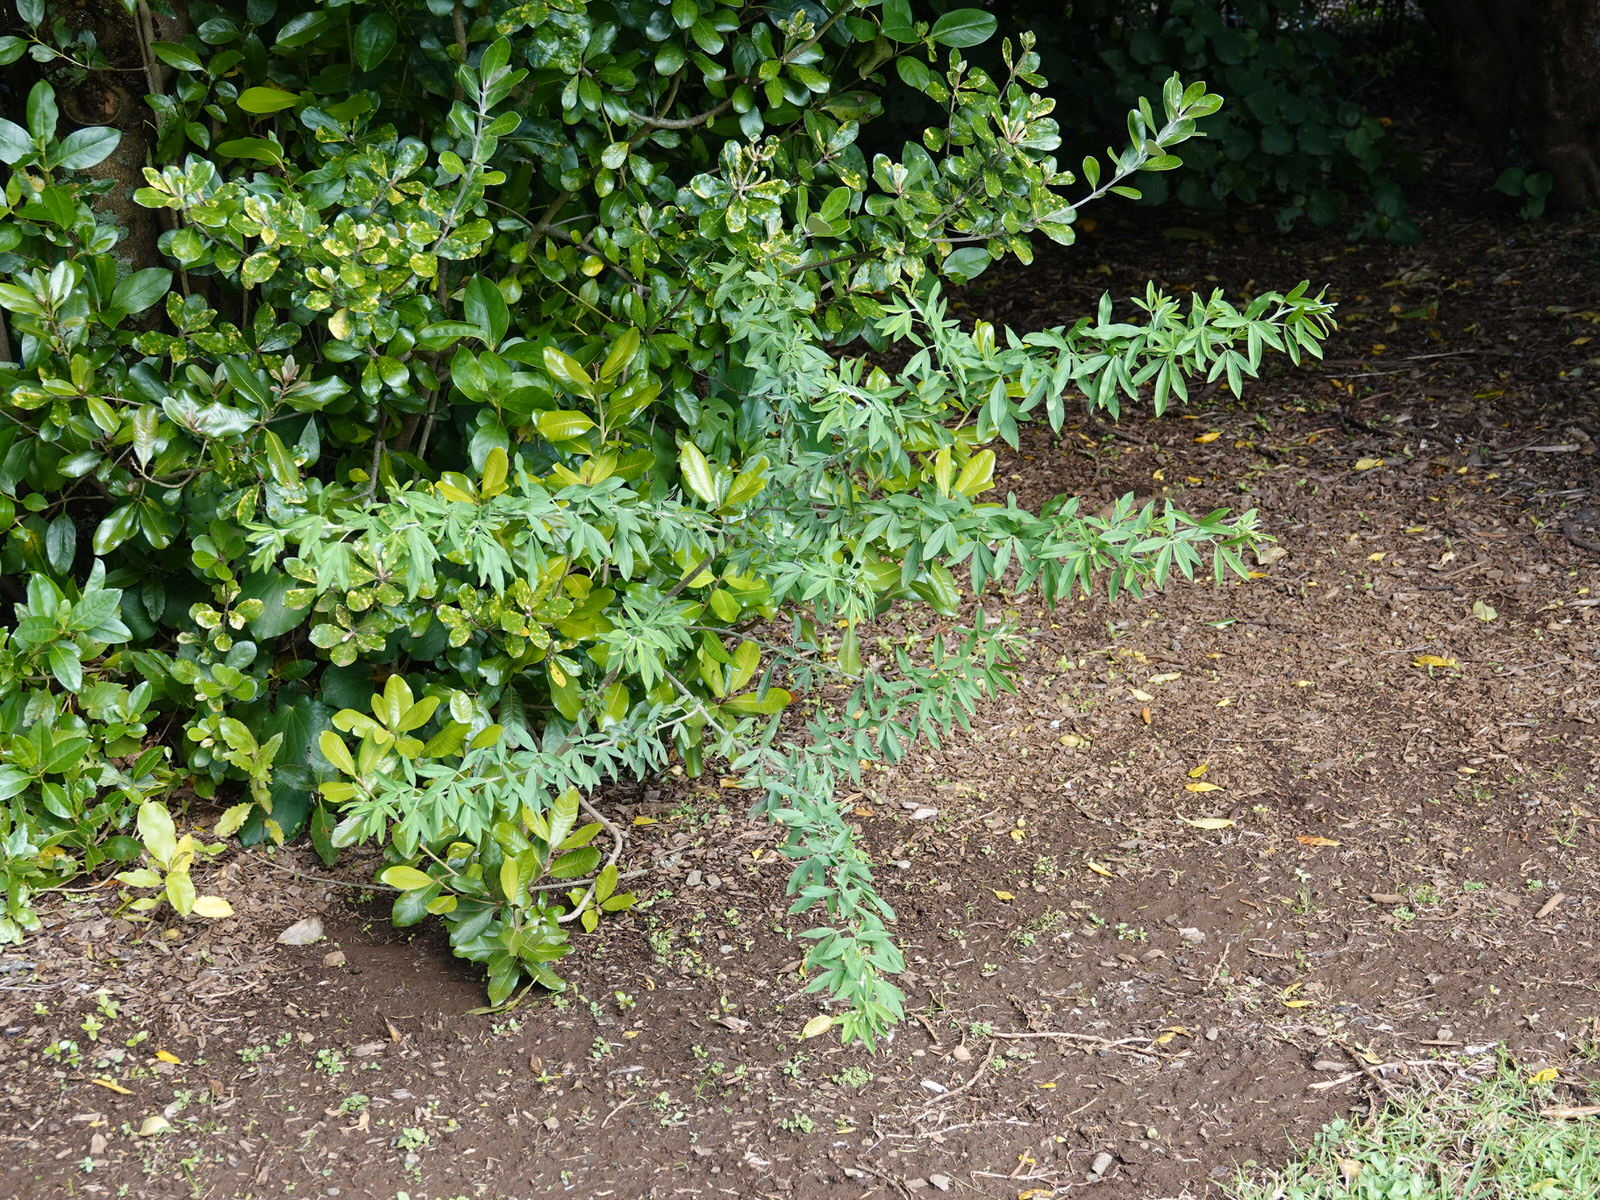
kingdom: Plantae
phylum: Tracheophyta
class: Magnoliopsida
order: Fabales
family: Fabaceae
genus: Chamaecytisus
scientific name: Chamaecytisus prolifer
